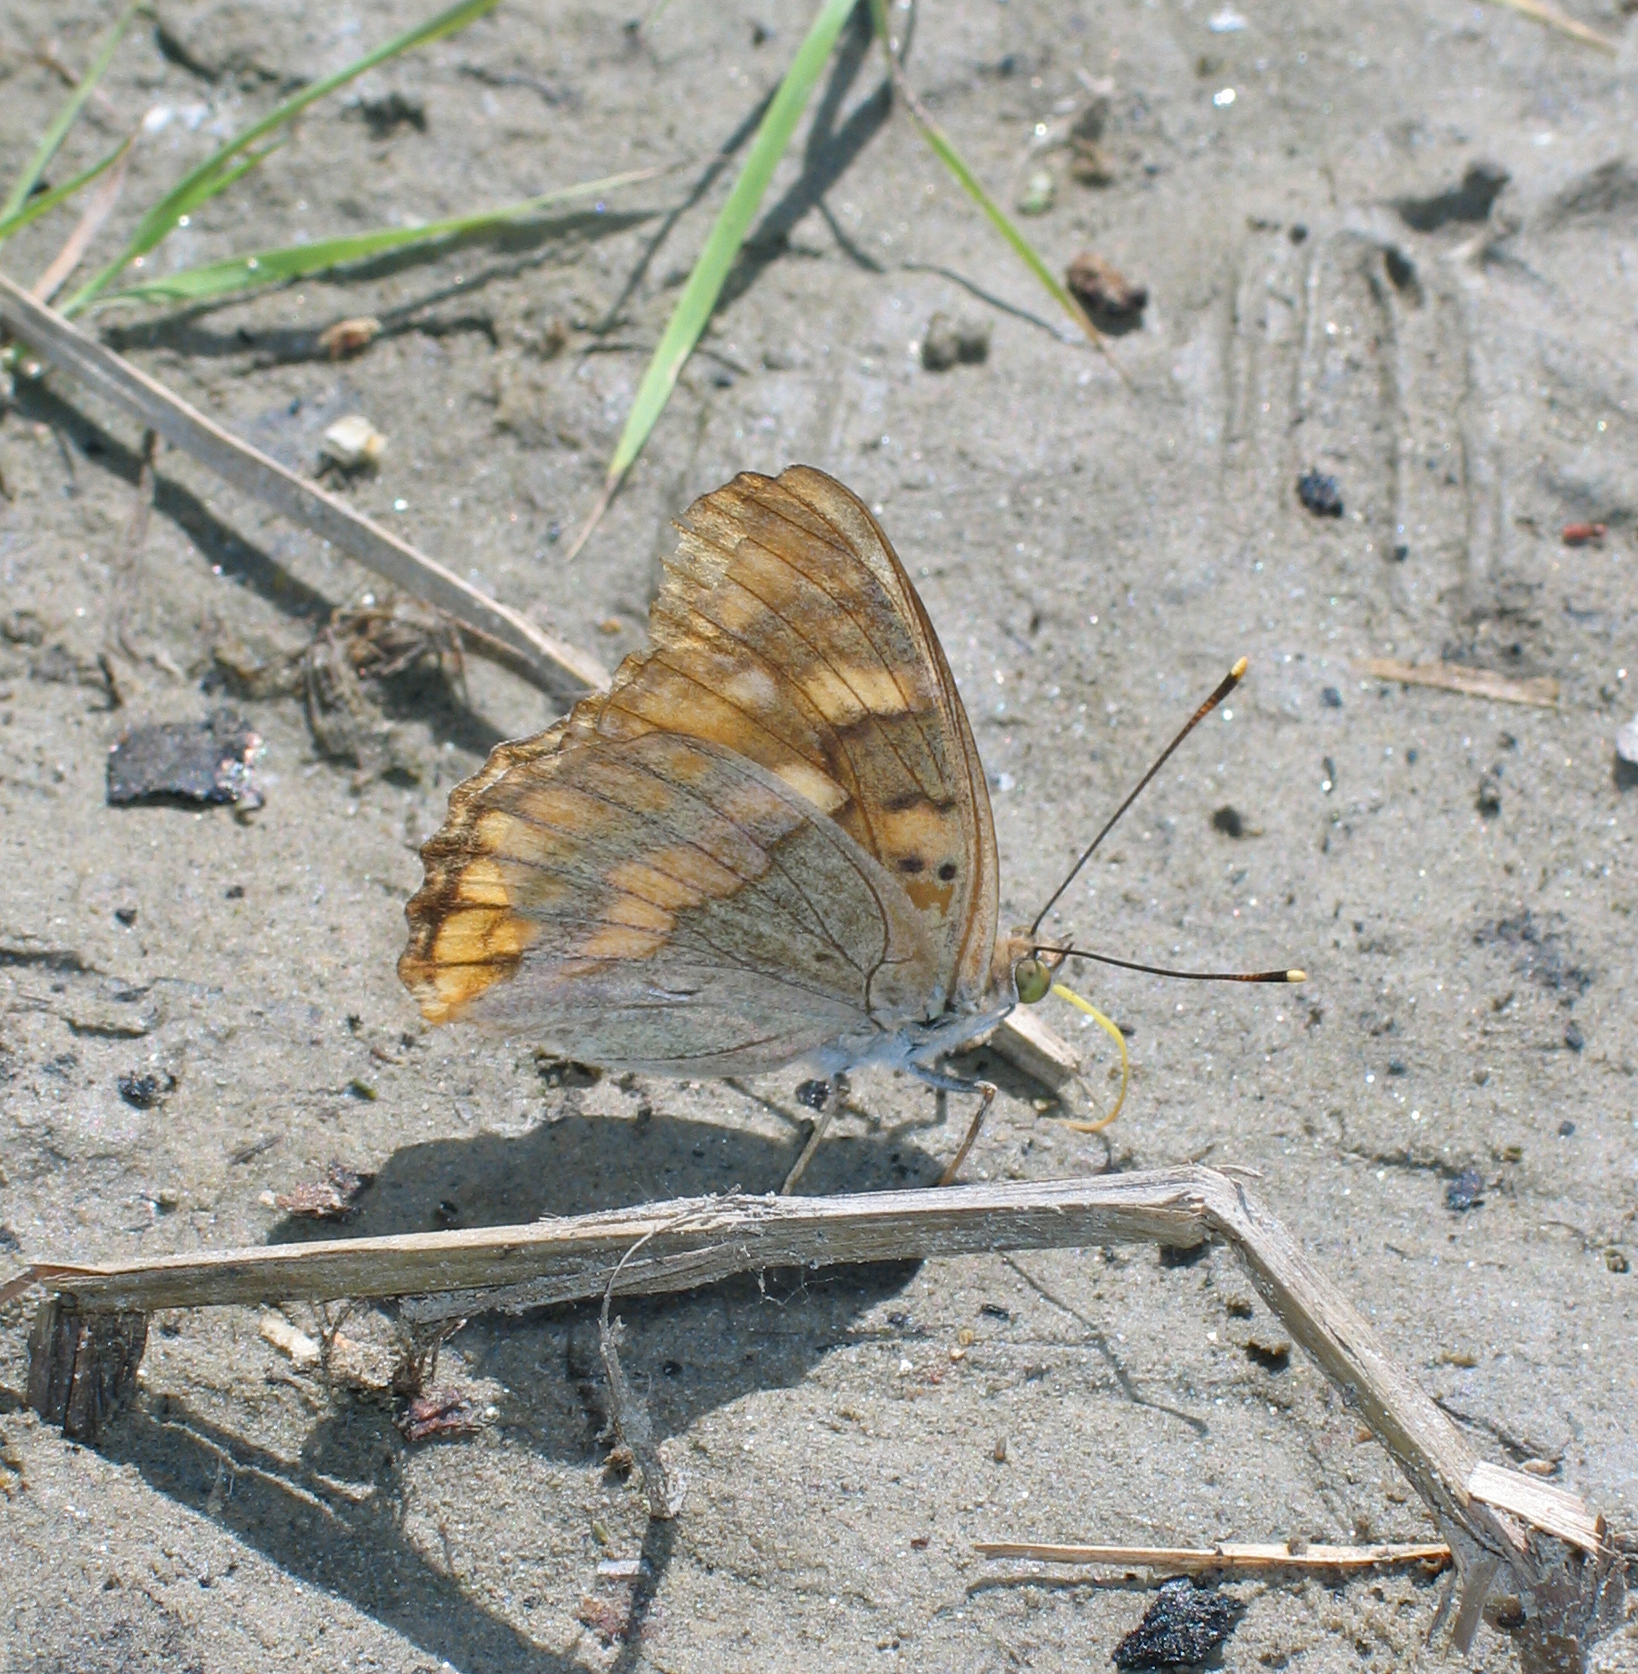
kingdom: Animalia
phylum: Arthropoda
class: Insecta
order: Lepidoptera
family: Nymphalidae
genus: Apatura
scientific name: Apatura ilia
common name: Lesser purple emperor
